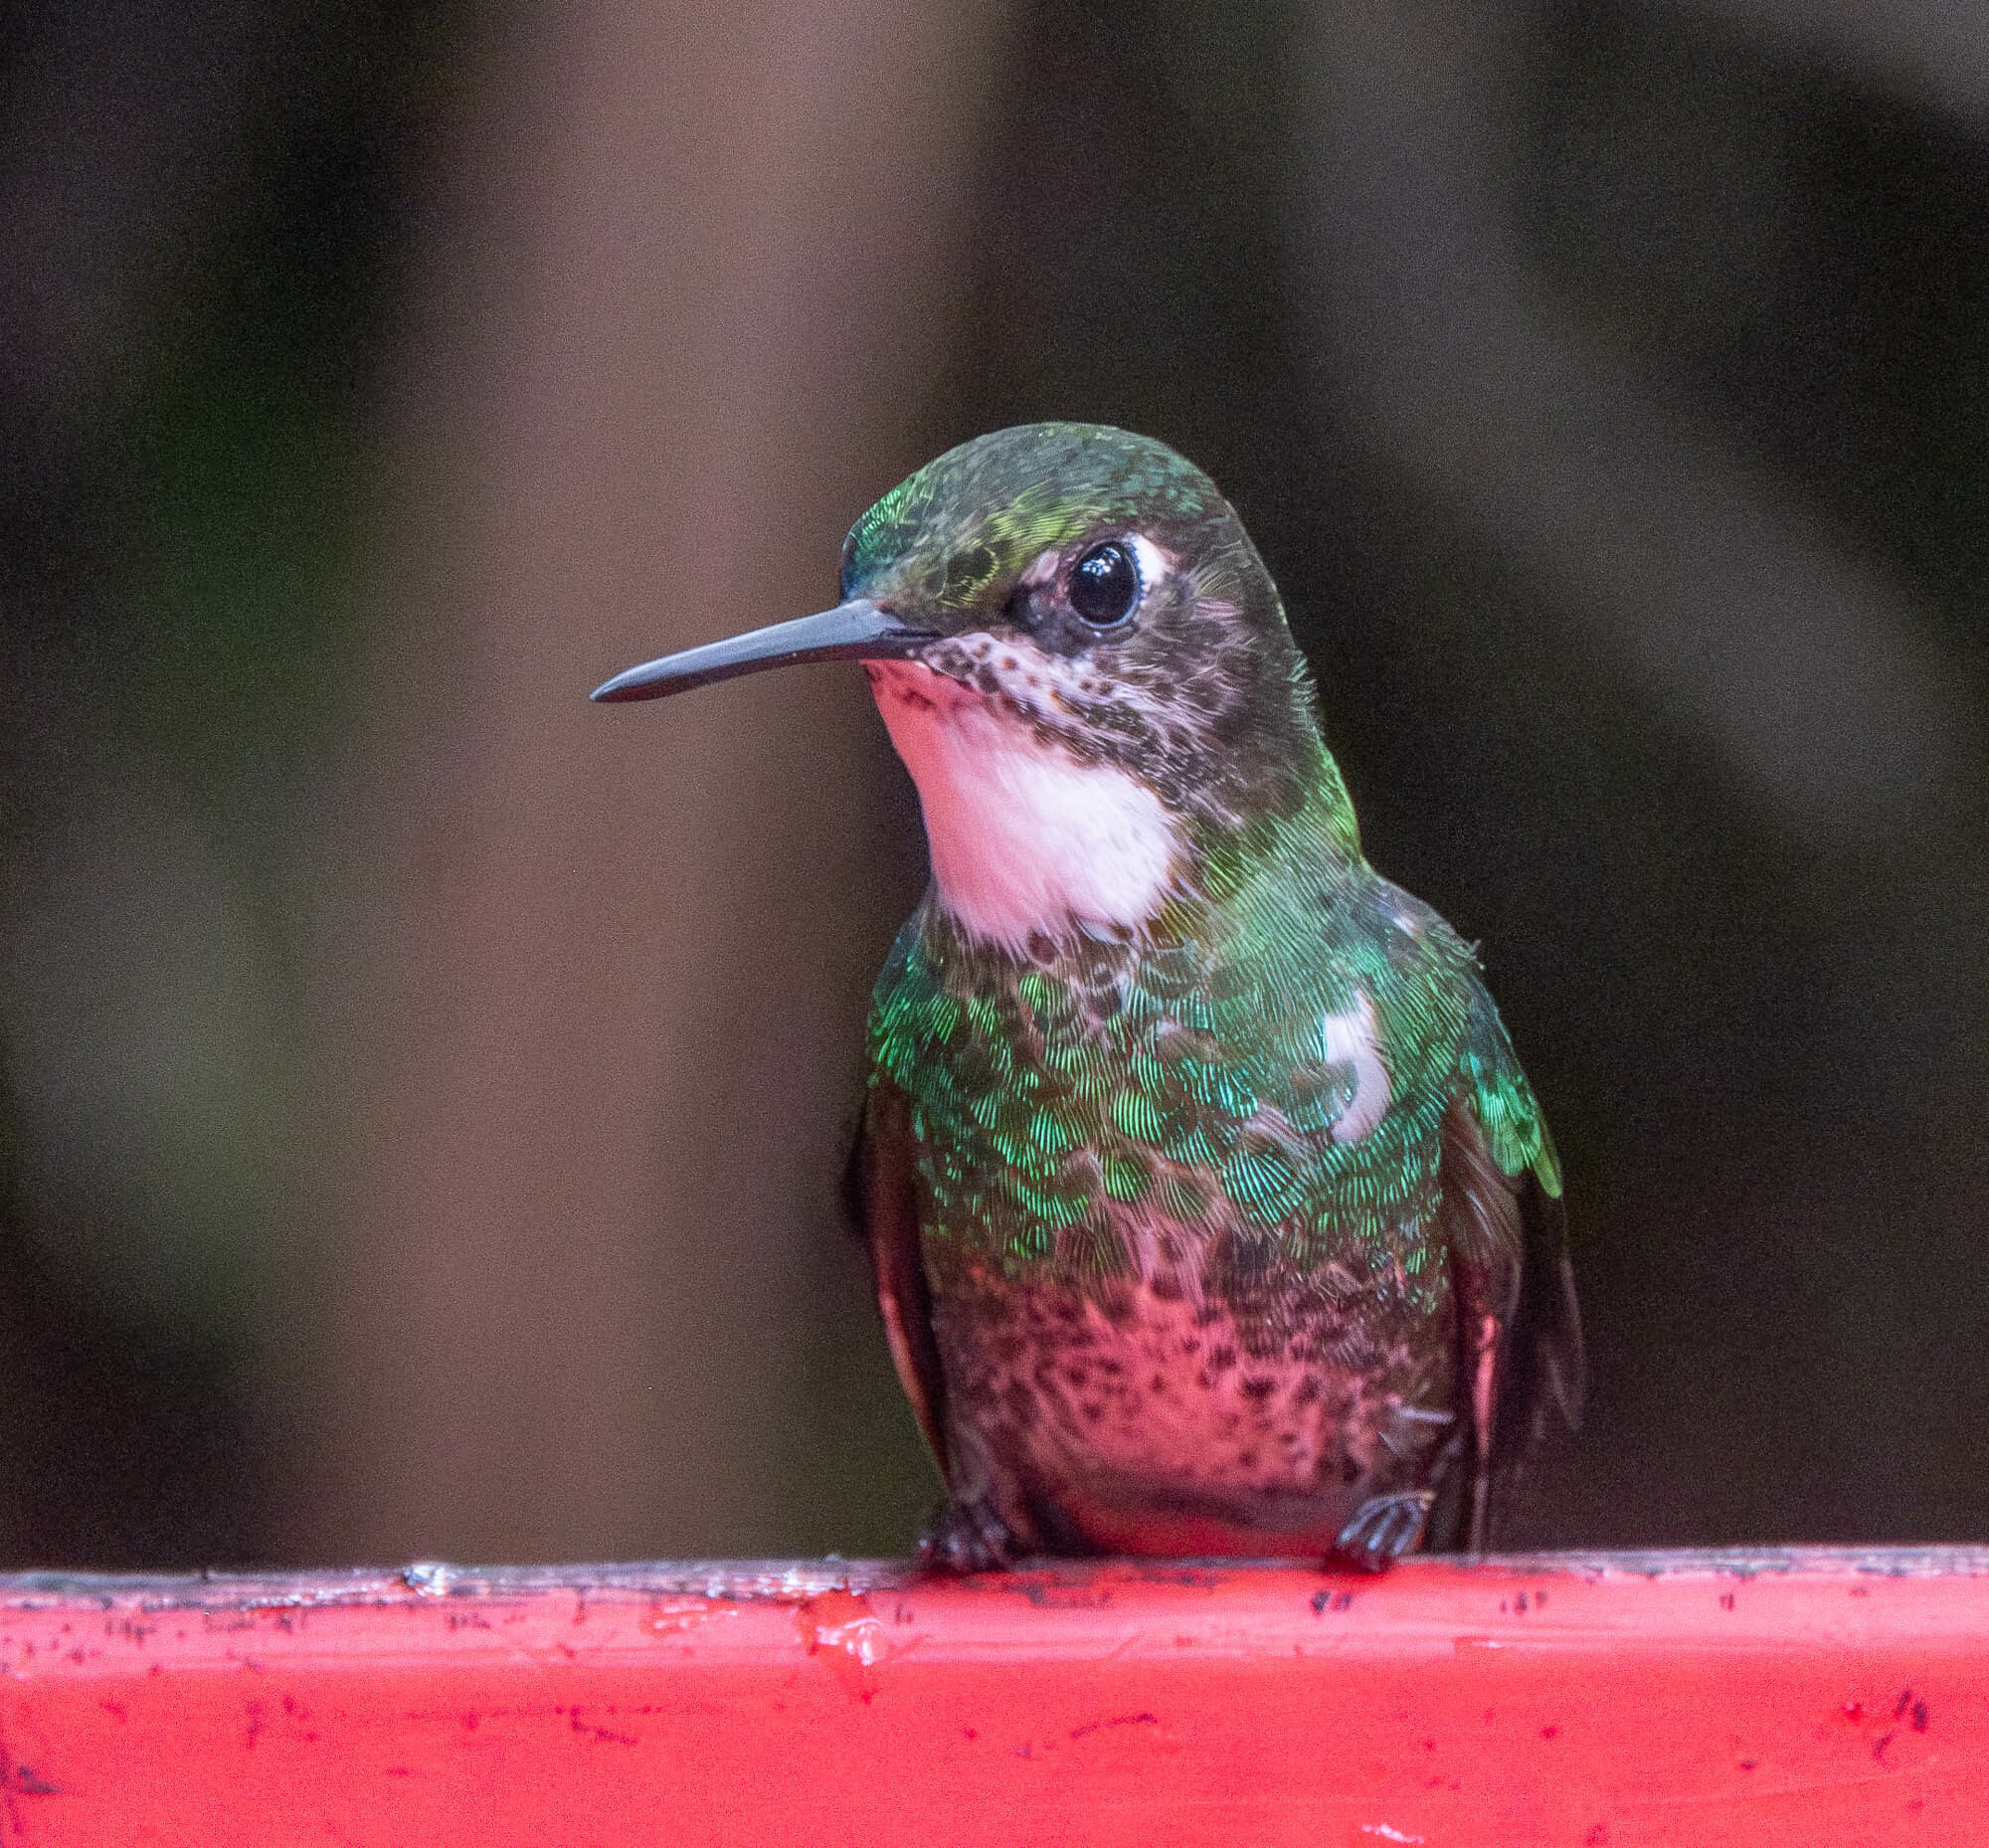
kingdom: Animalia
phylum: Chordata
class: Aves
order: Apodiformes
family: Trochilidae
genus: Heliangelus
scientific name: Heliangelus exortis
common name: Tourmaline sunangel
